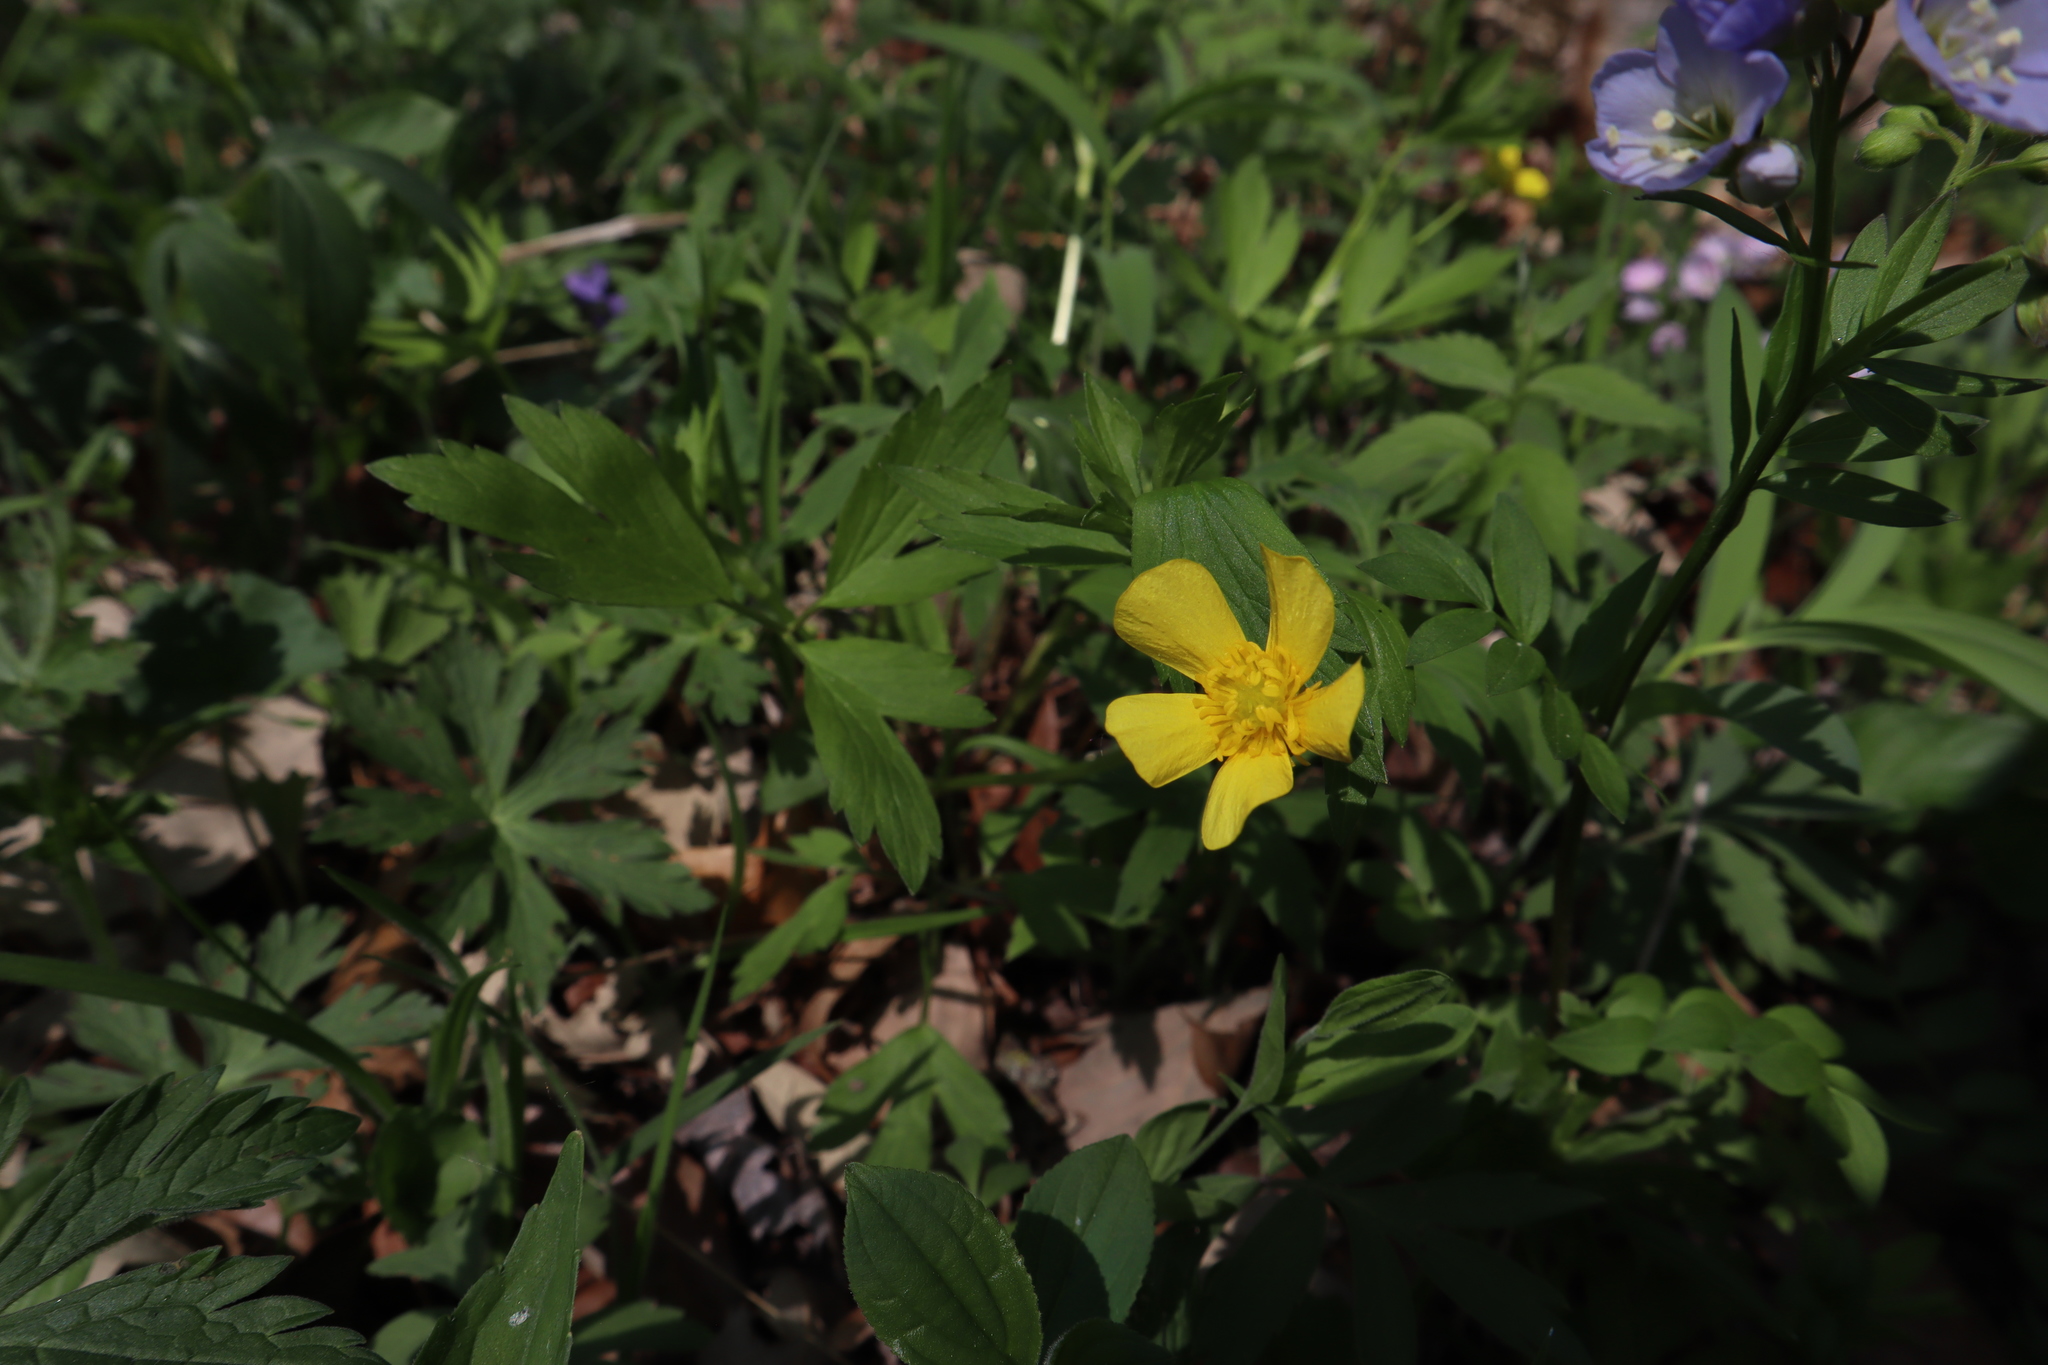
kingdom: Plantae
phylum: Tracheophyta
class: Magnoliopsida
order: Ranunculales
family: Ranunculaceae
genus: Ranunculus
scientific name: Ranunculus hispidus
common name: Bristly buttercup
